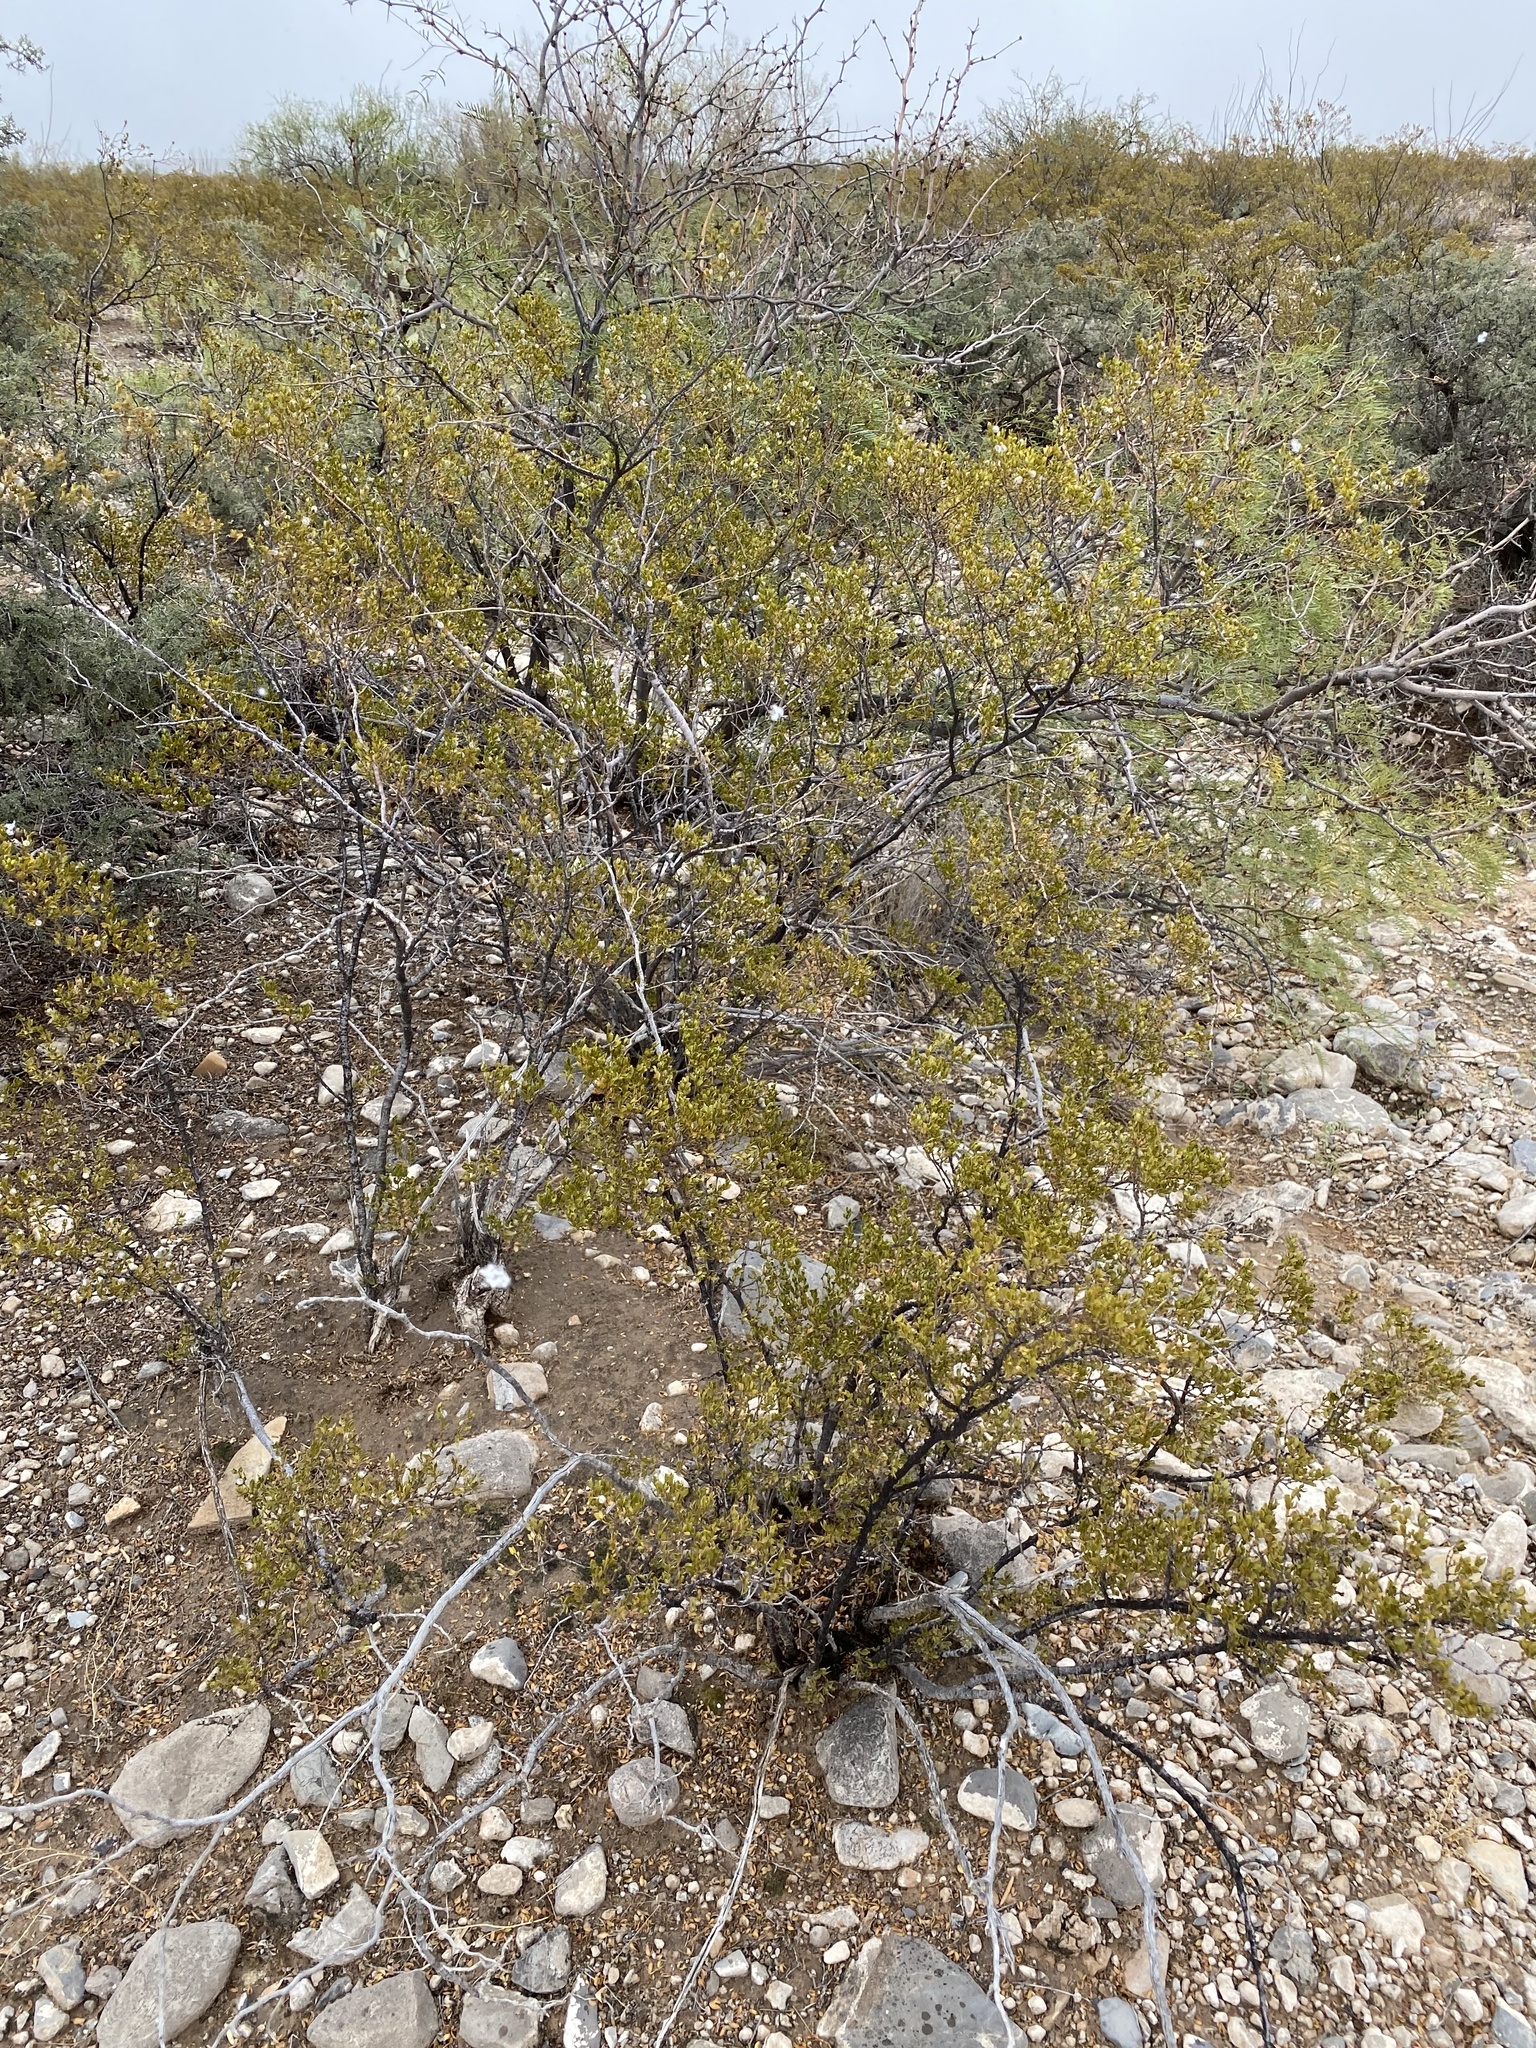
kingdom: Plantae
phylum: Tracheophyta
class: Magnoliopsida
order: Zygophyllales
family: Zygophyllaceae
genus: Larrea
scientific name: Larrea tridentata
